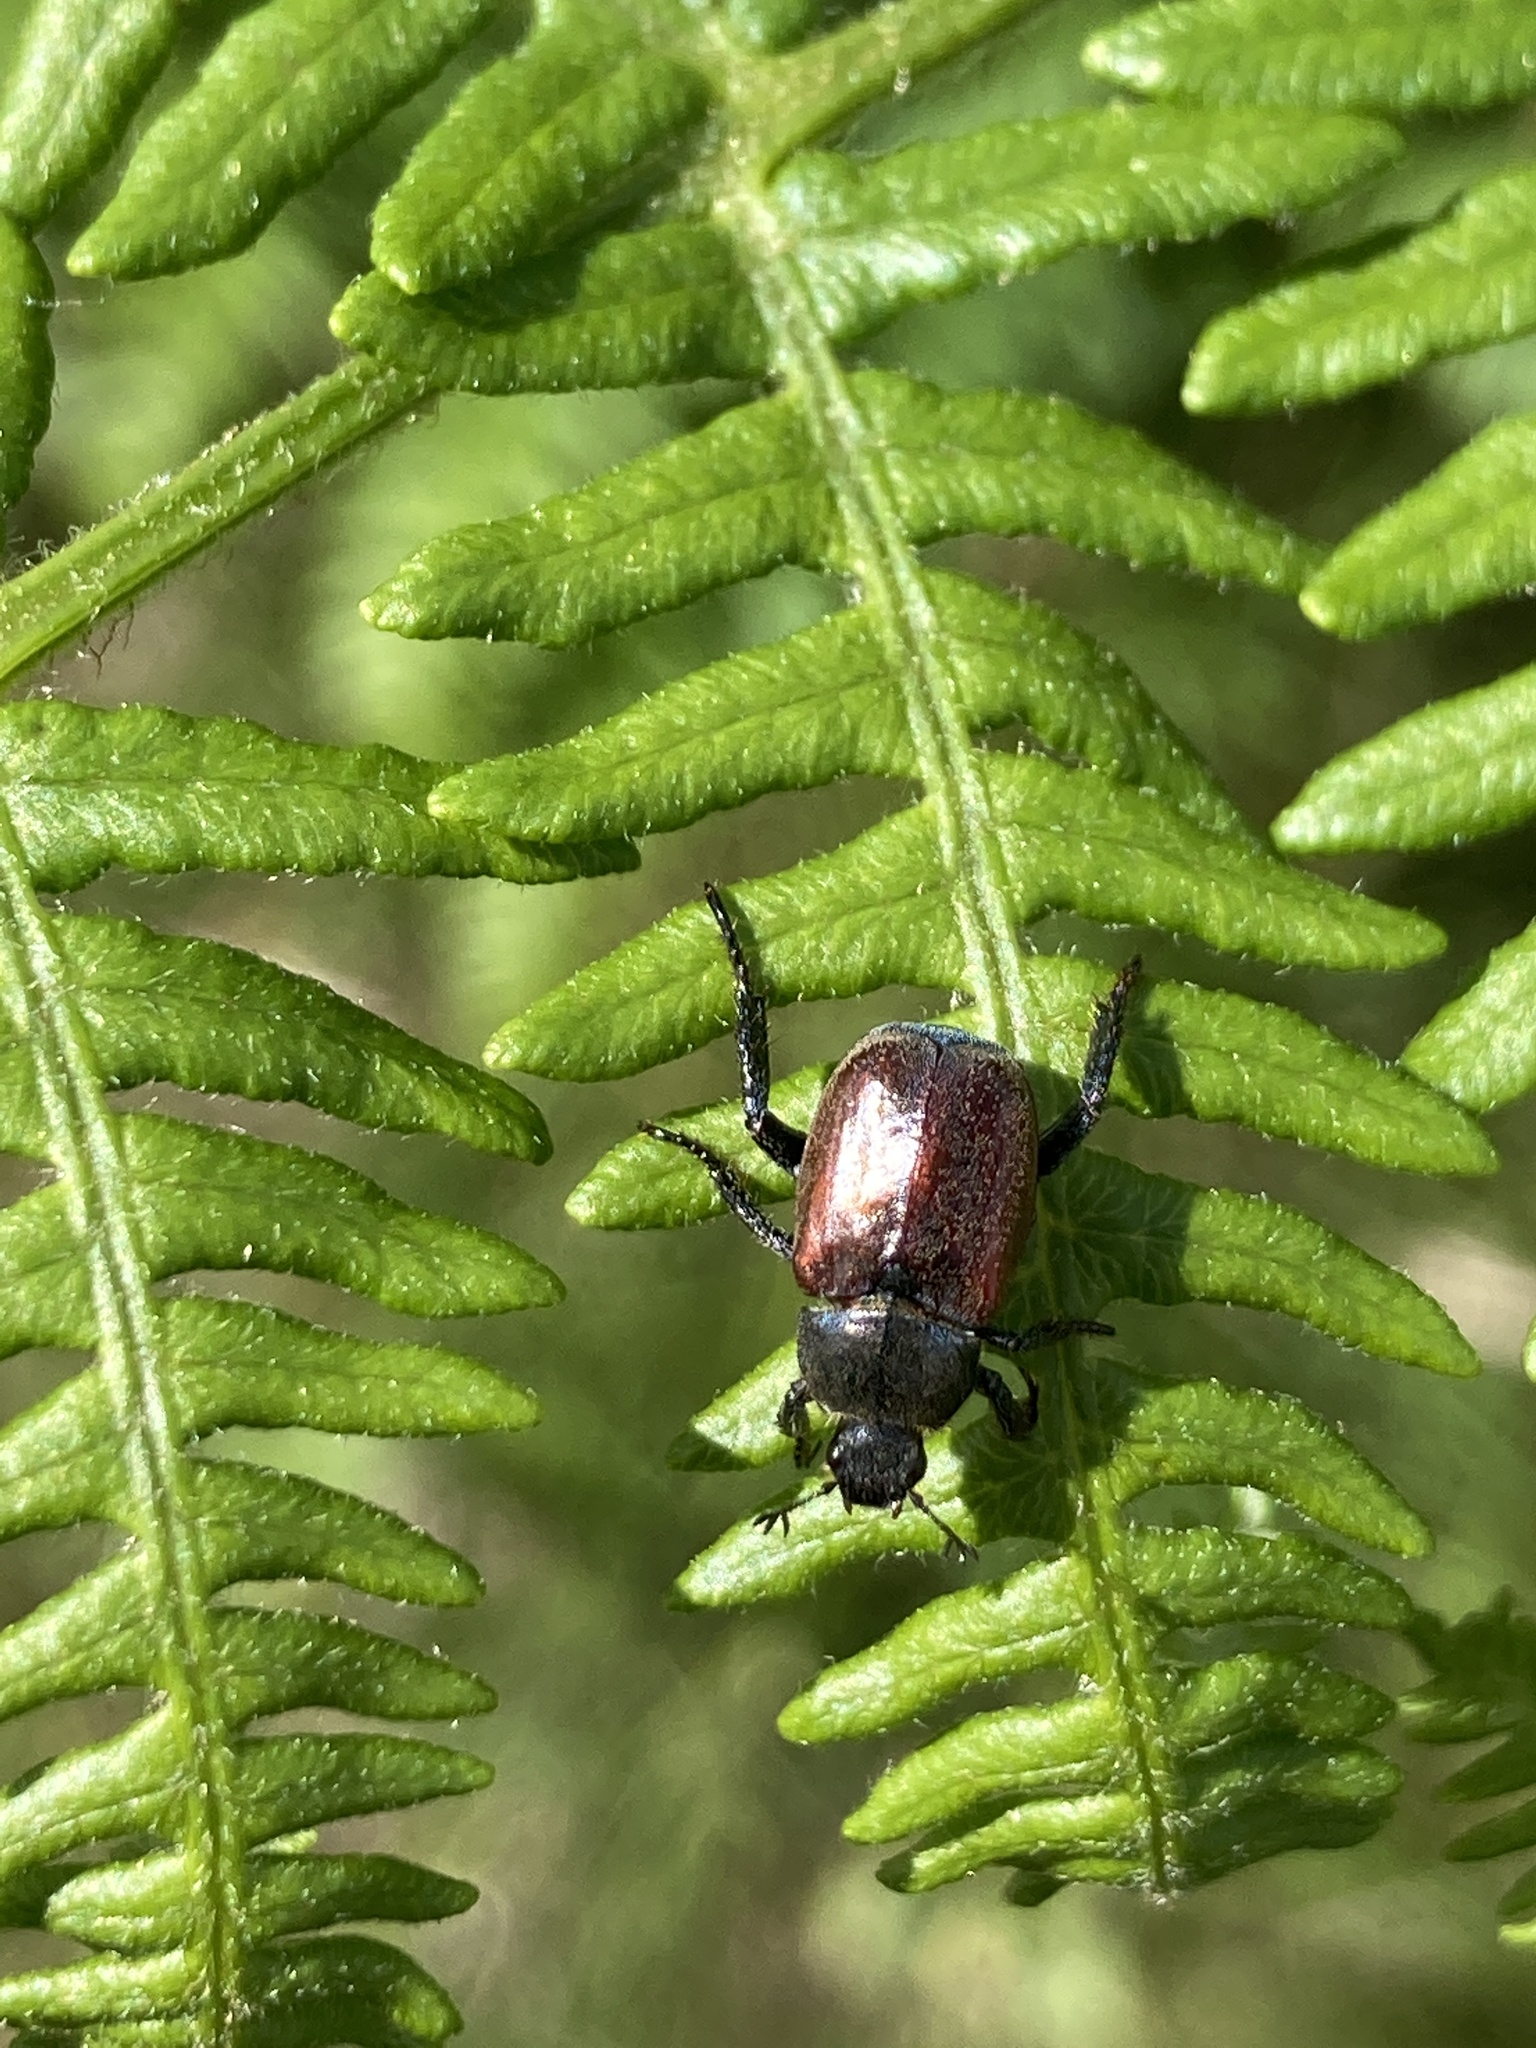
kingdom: Animalia
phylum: Arthropoda
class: Insecta
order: Coleoptera
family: Scarabaeidae
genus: Hoplia
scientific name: Hoplia philanthus
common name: Welsh chafer
